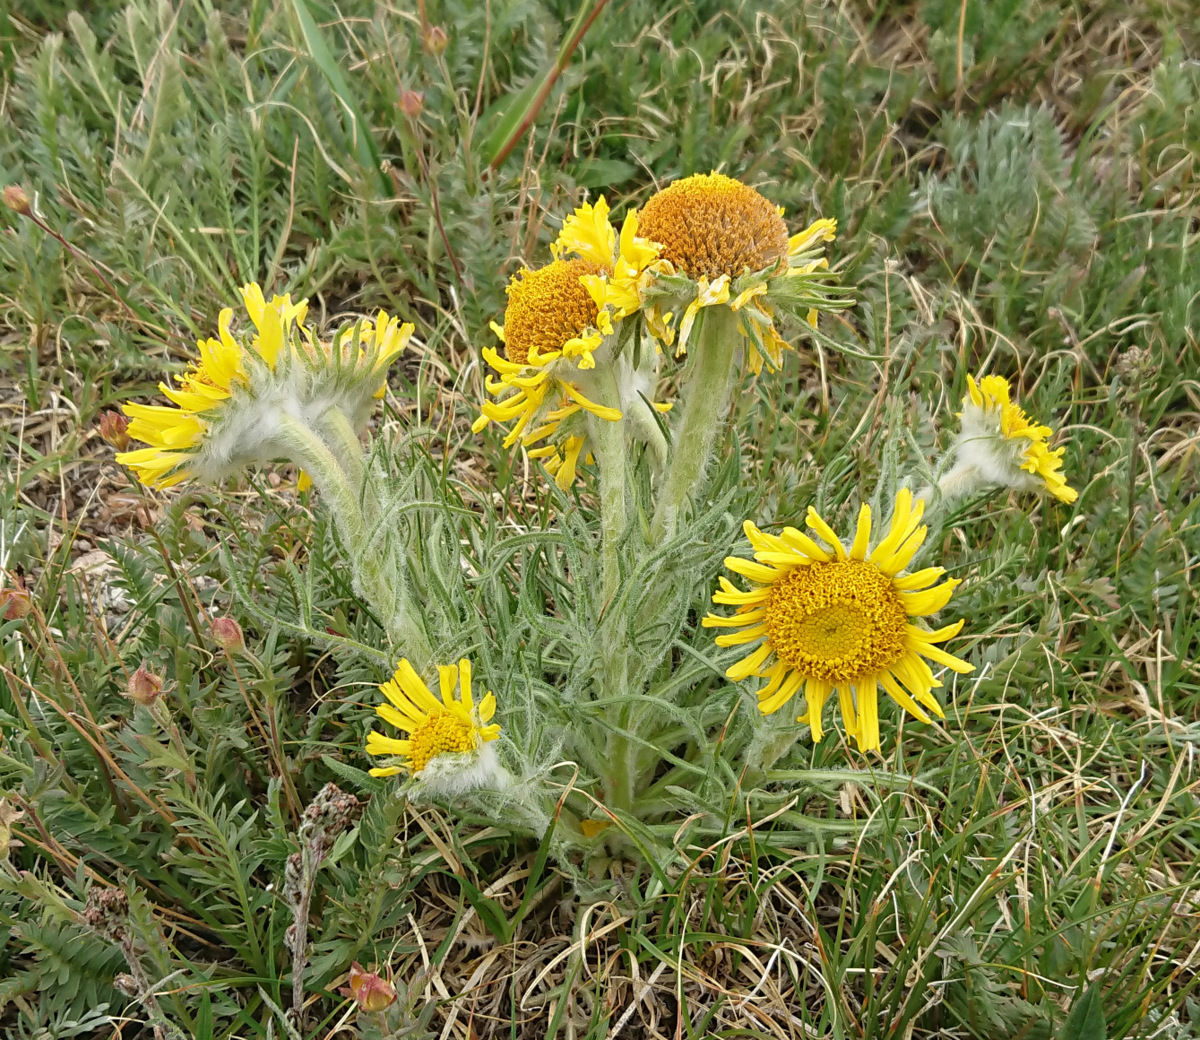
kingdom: Plantae
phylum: Tracheophyta
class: Magnoliopsida
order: Asterales
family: Asteraceae
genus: Hymenoxys
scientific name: Hymenoxys grandiflora
